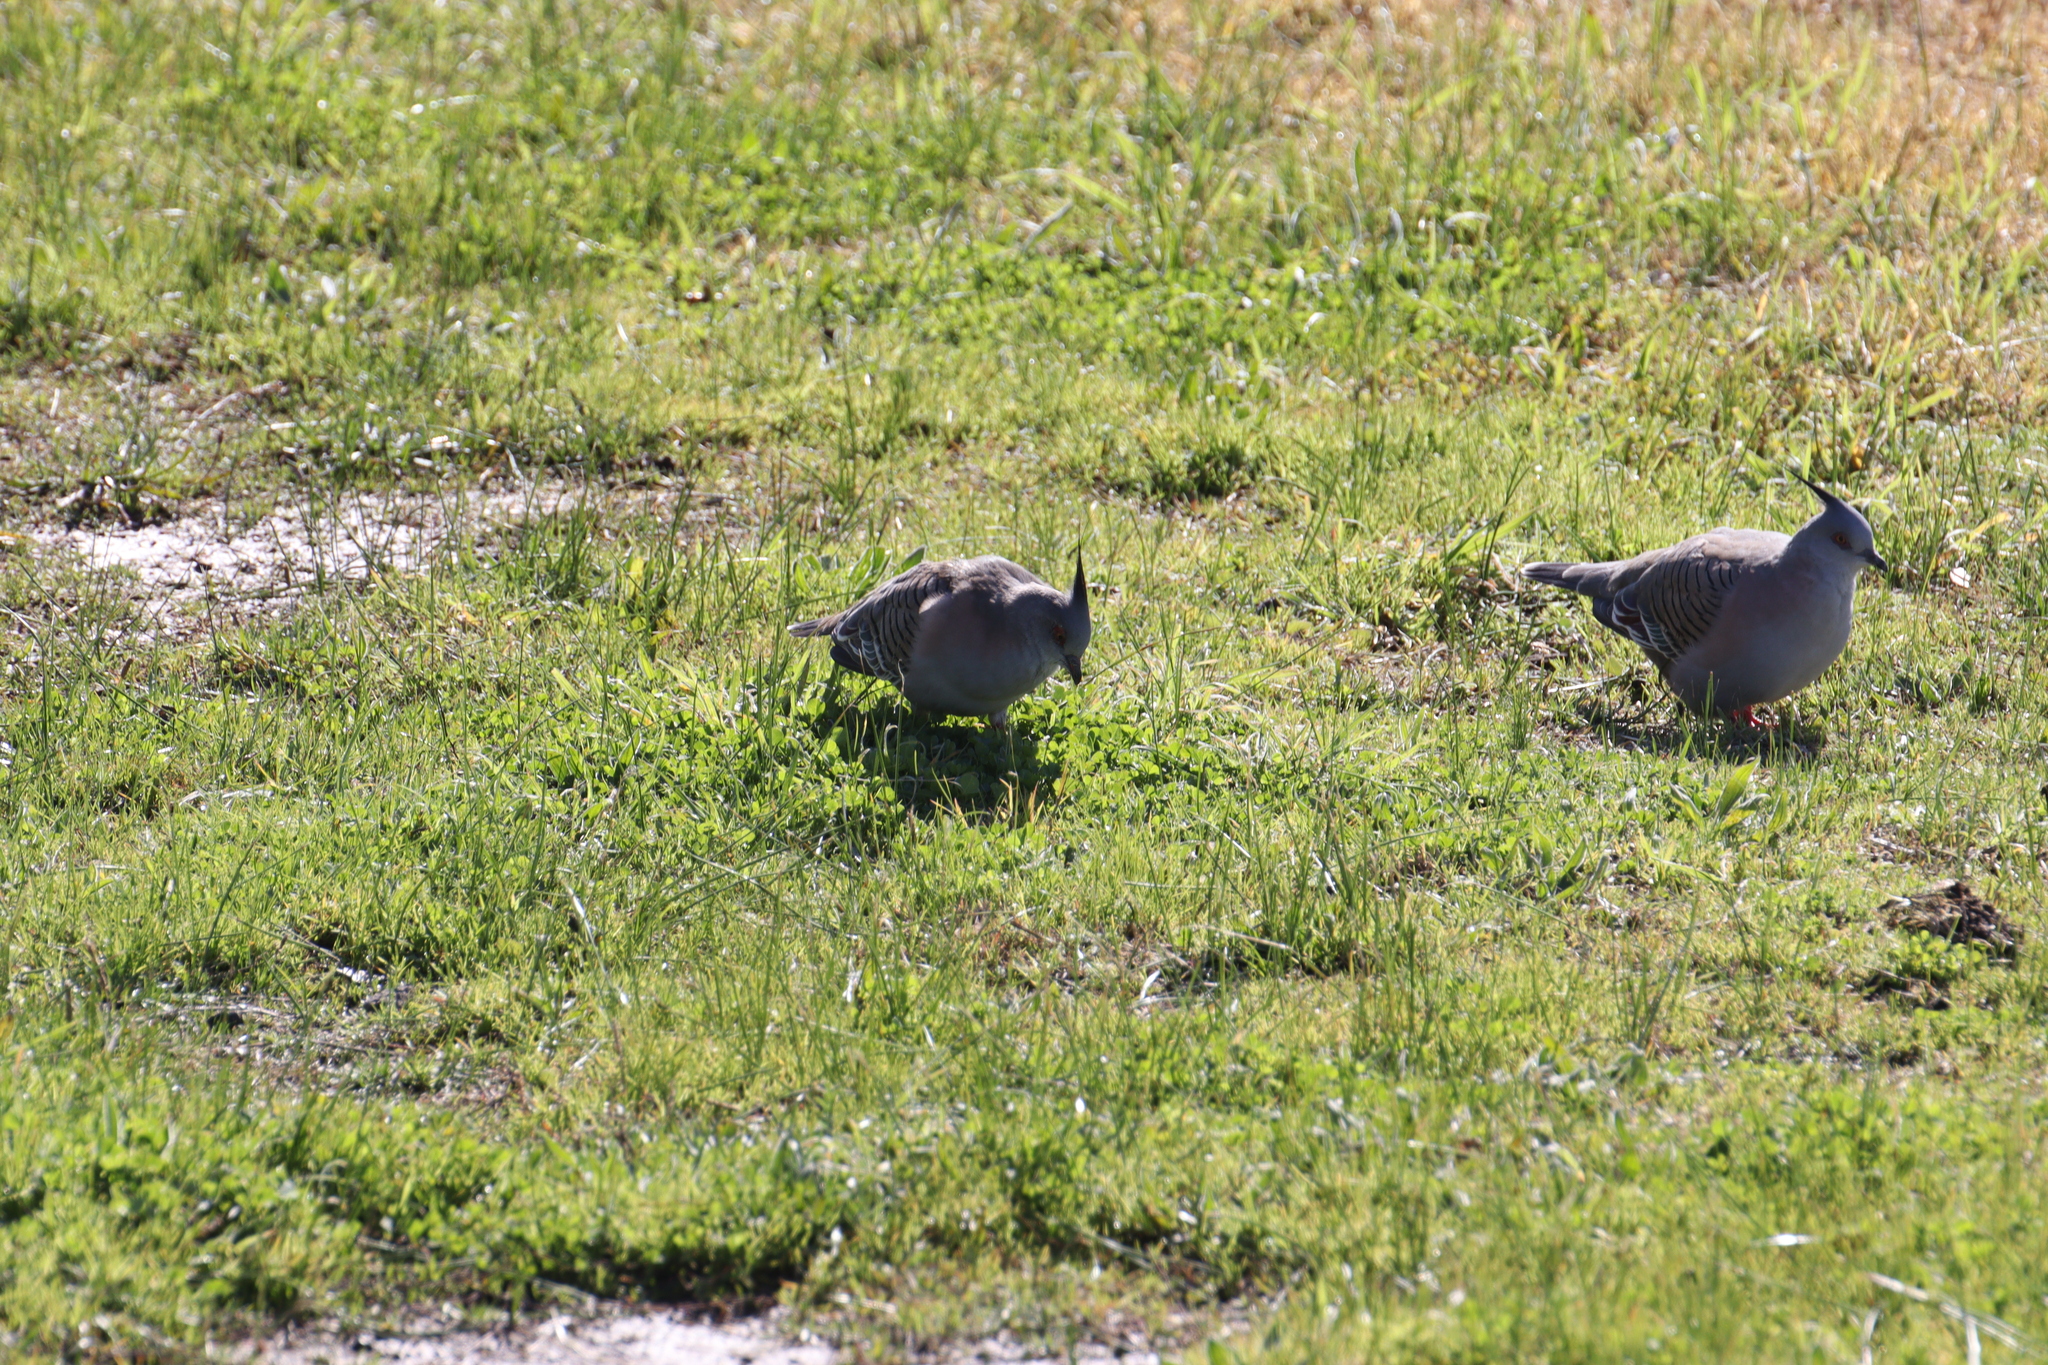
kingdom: Animalia
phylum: Chordata
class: Aves
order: Columbiformes
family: Columbidae
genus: Ocyphaps
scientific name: Ocyphaps lophotes
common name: Crested pigeon
